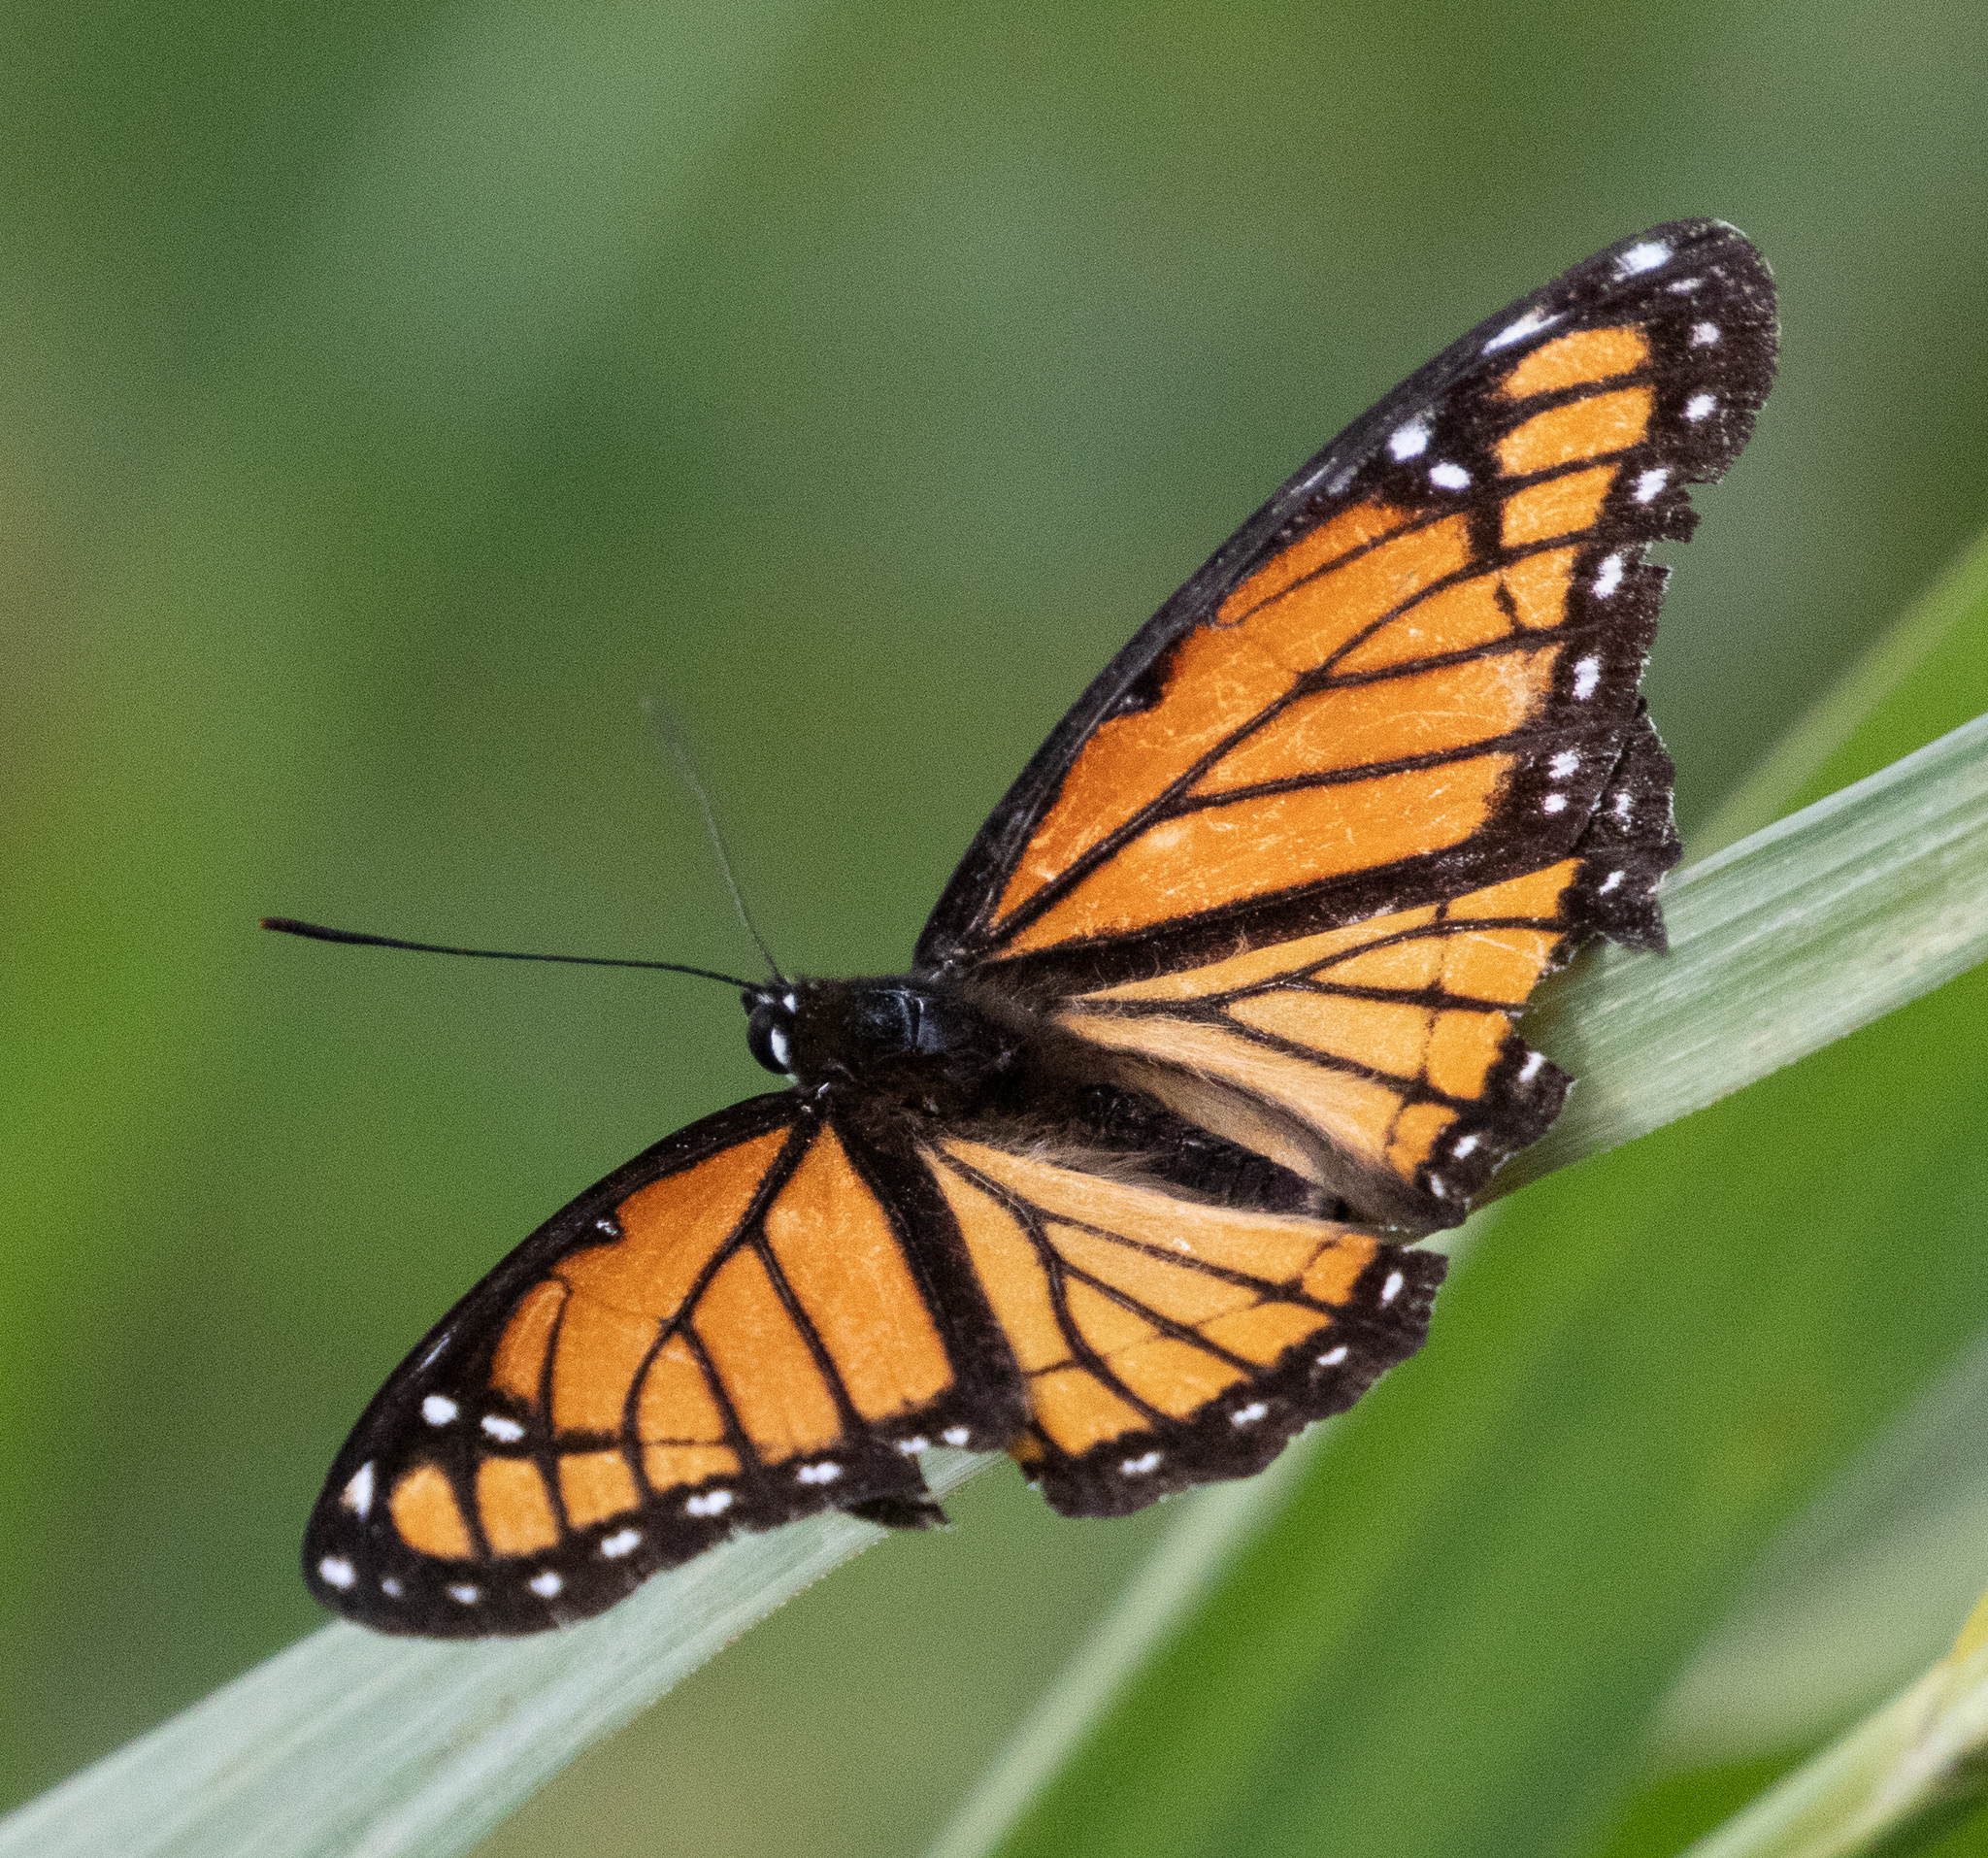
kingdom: Animalia
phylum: Arthropoda
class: Insecta
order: Lepidoptera
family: Nymphalidae
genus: Limenitis
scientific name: Limenitis archippus
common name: Viceroy
